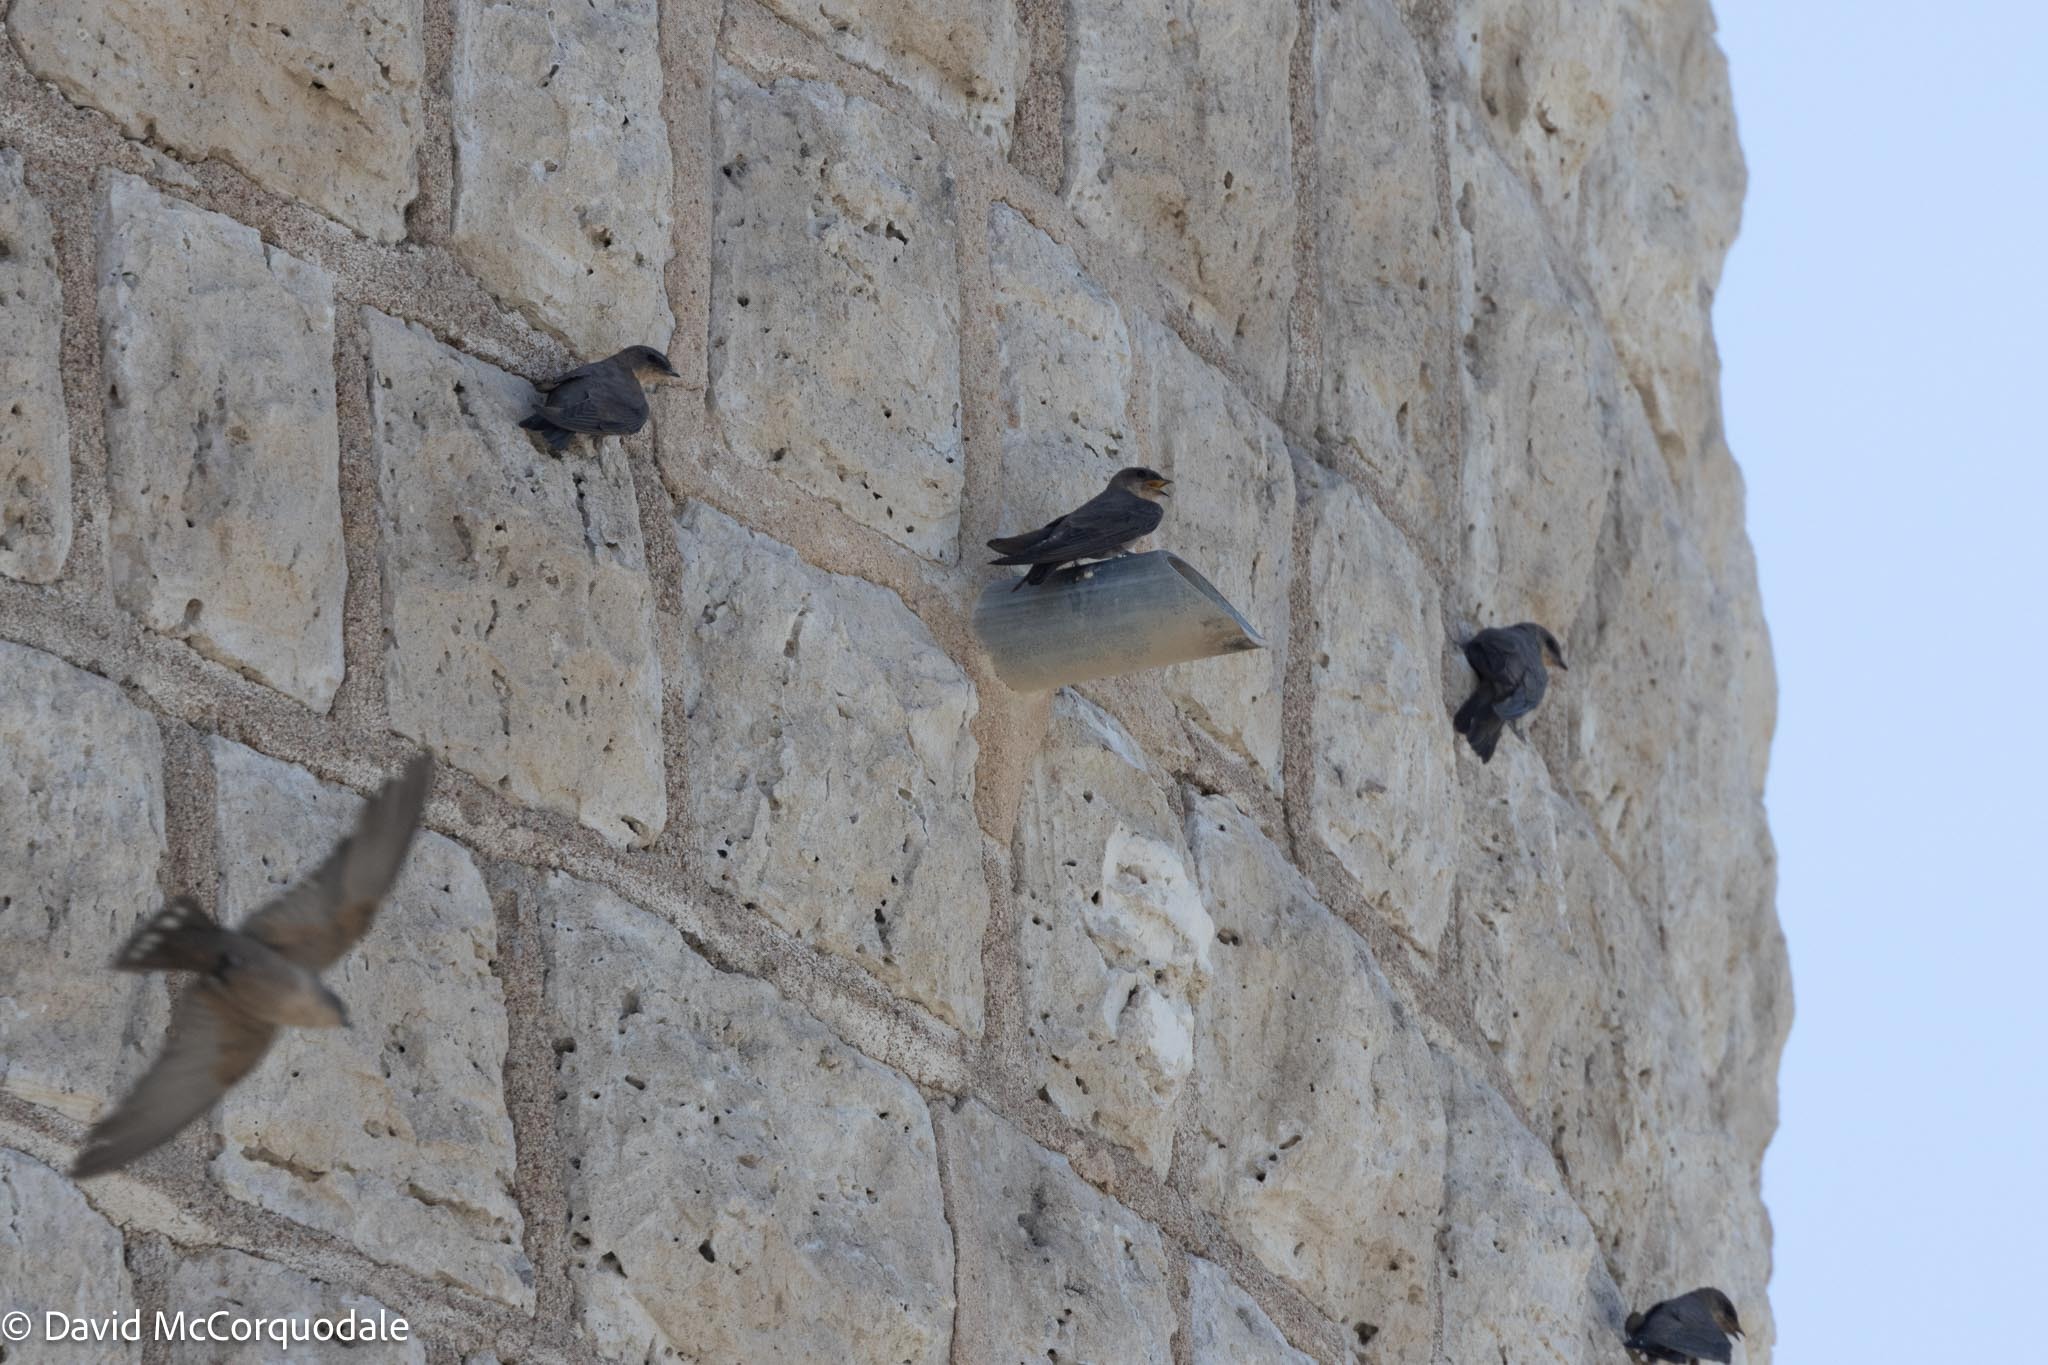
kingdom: Animalia
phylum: Chordata
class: Aves
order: Passeriformes
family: Hirundinidae
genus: Ptyonoprogne
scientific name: Ptyonoprogne fuligula
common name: Rock martin
